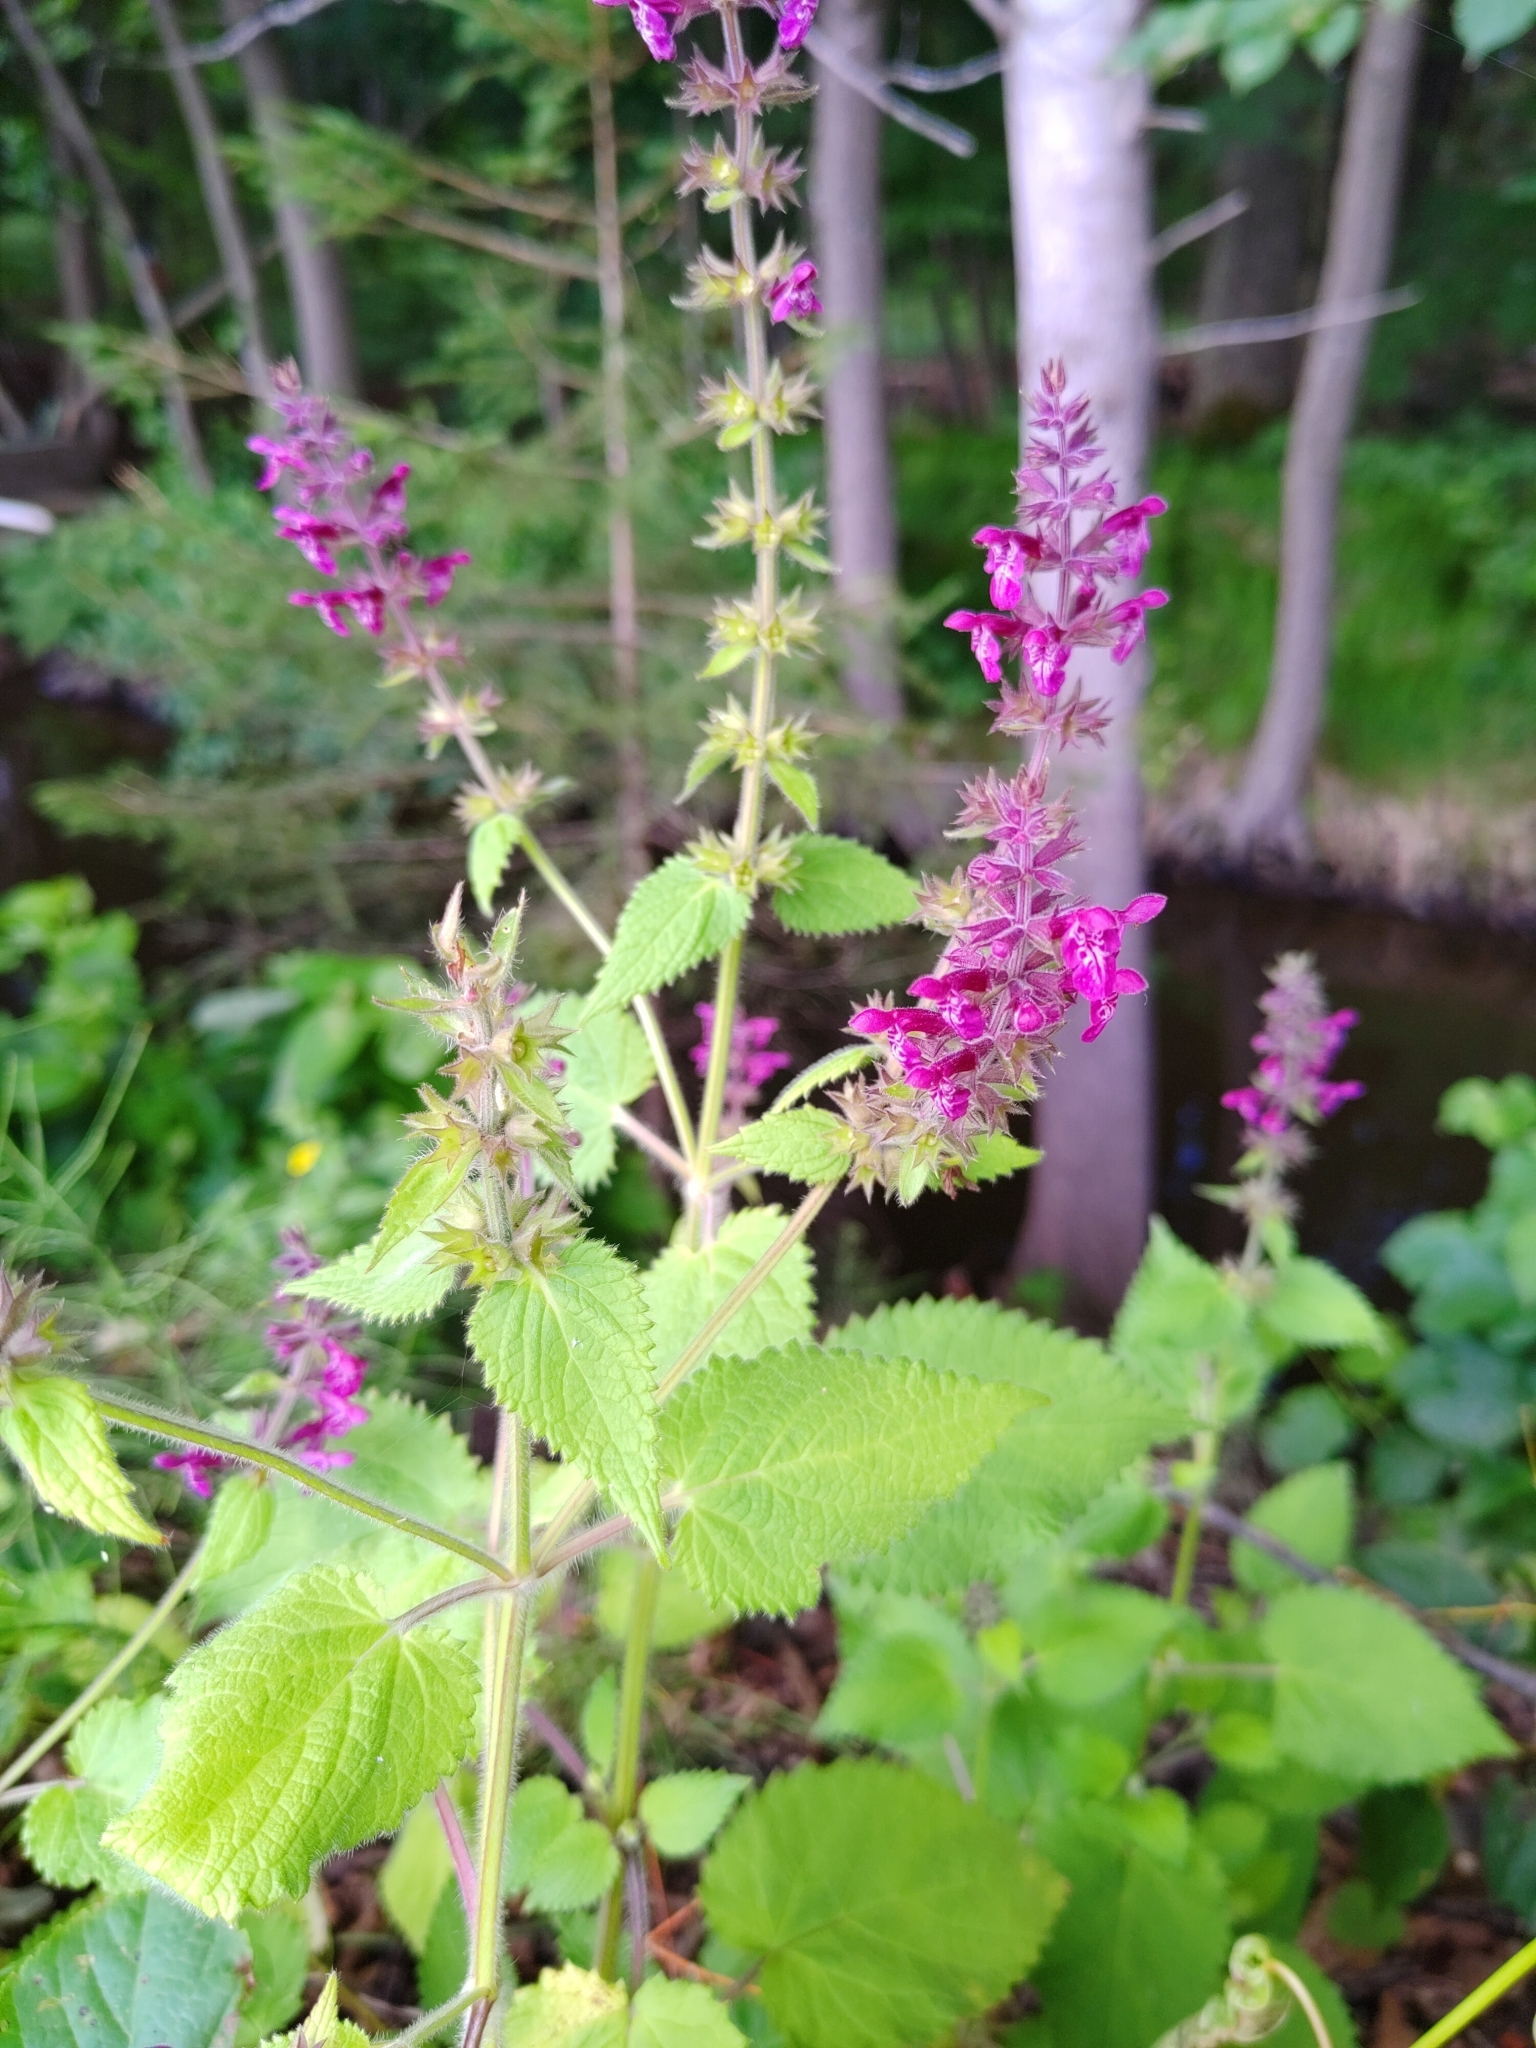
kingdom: Plantae
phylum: Tracheophyta
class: Magnoliopsida
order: Lamiales
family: Lamiaceae
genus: Stachys
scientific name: Stachys sylvatica
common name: Hedge woundwort
